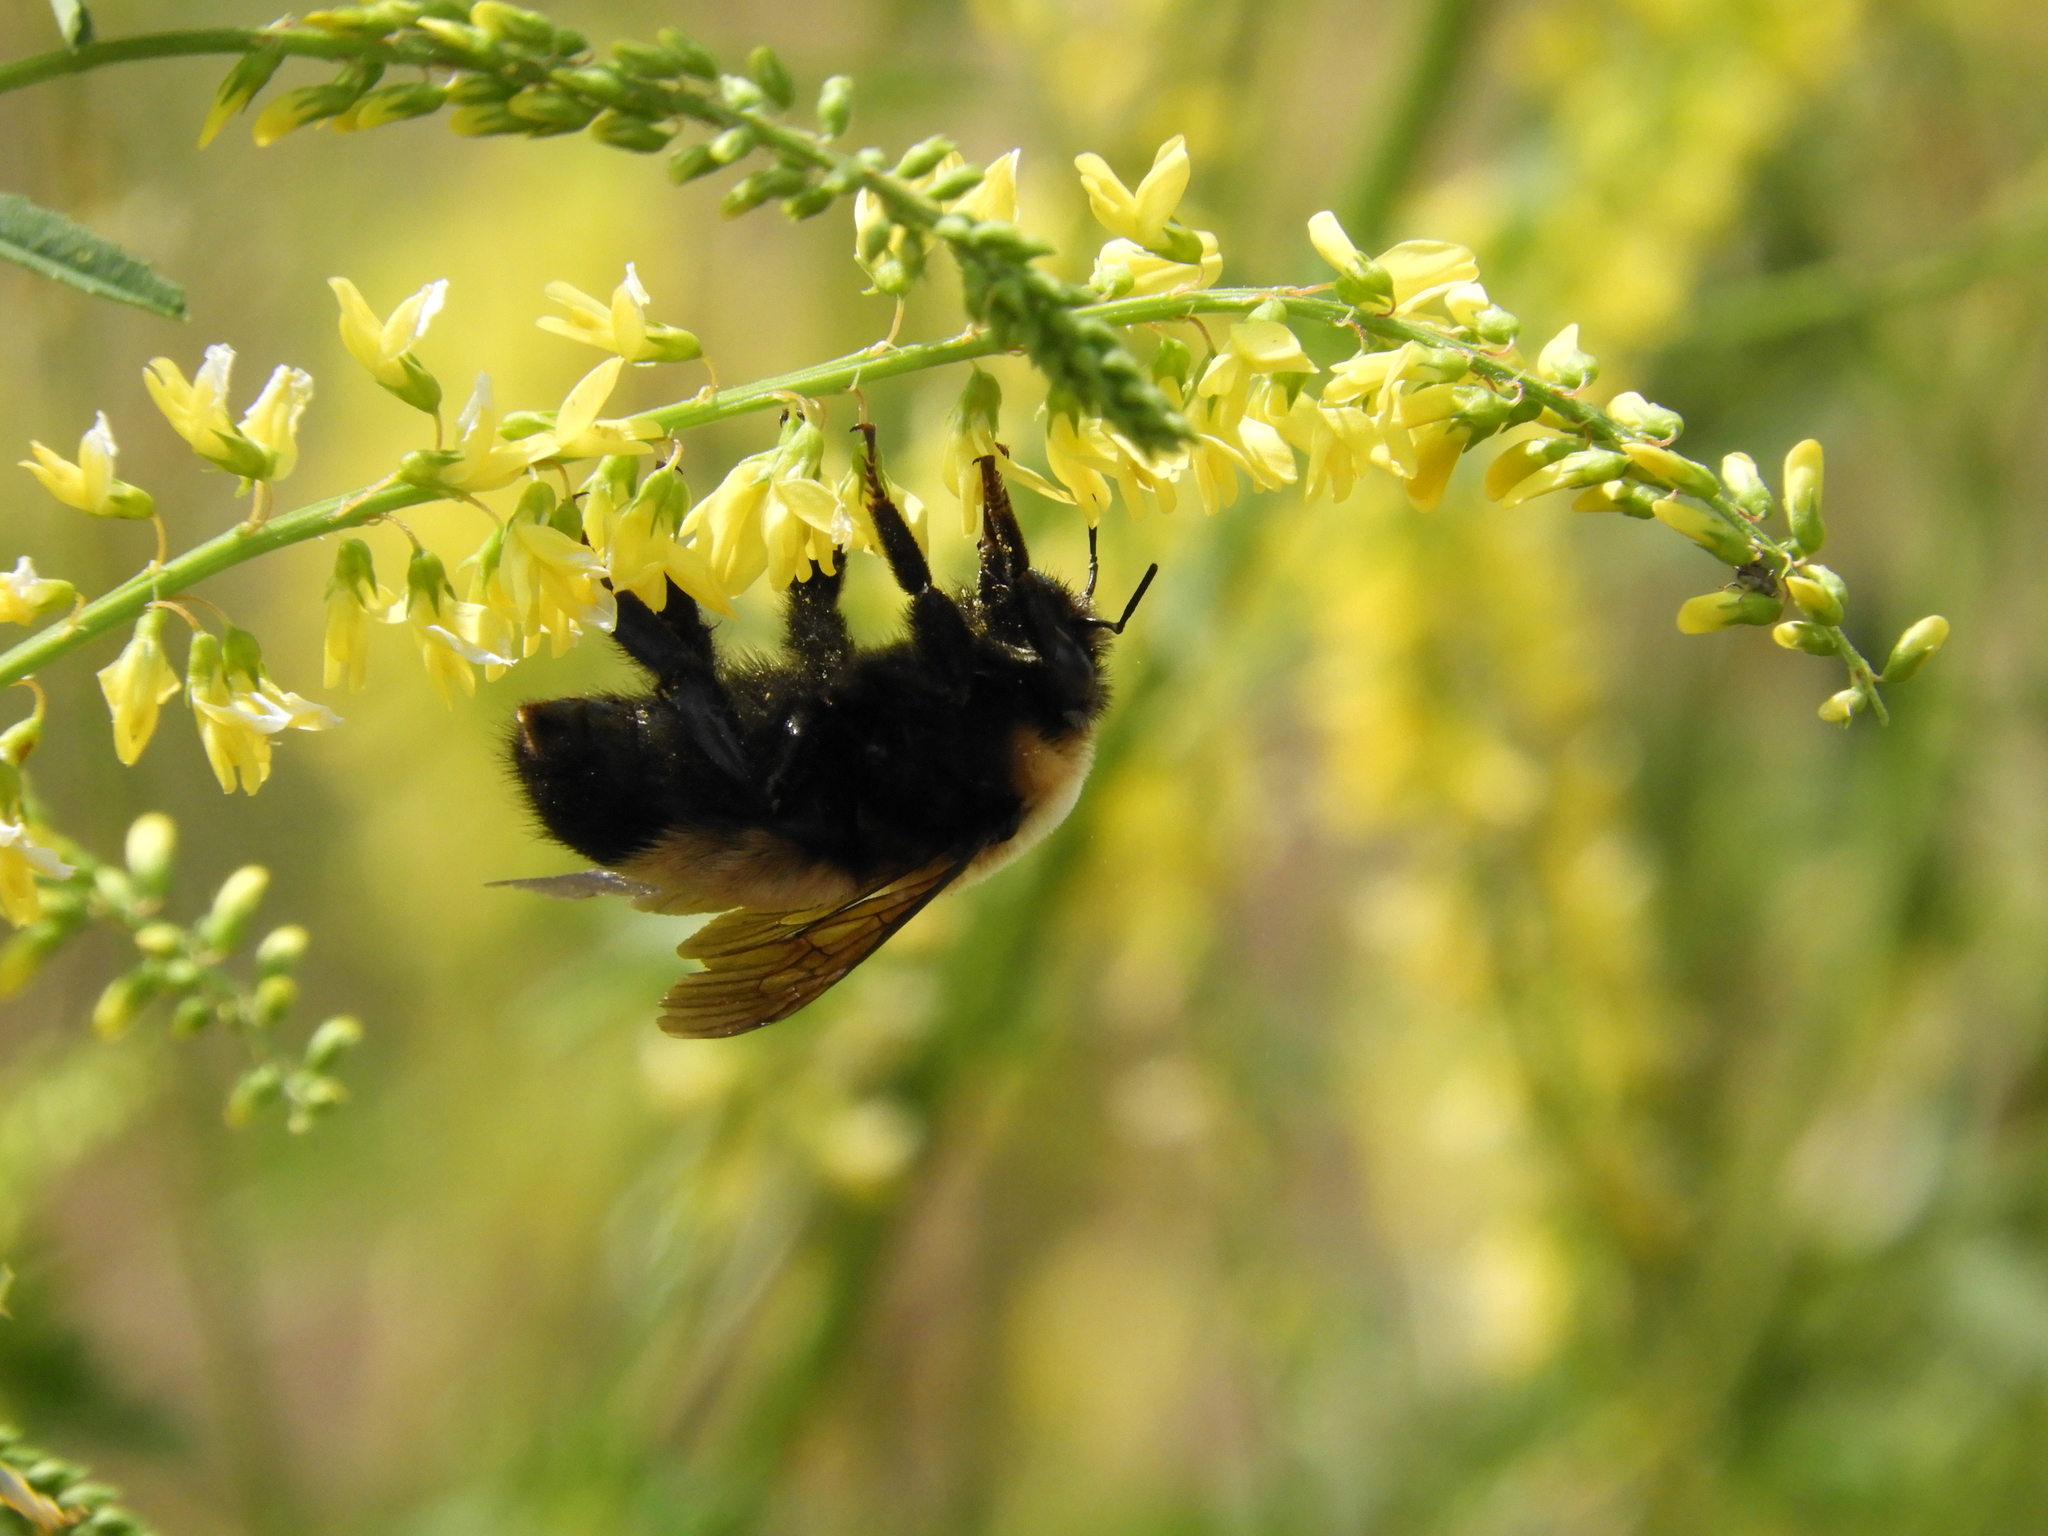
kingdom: Animalia
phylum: Arthropoda
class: Insecta
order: Hymenoptera
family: Apidae
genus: Bombus
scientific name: Bombus nevadensis
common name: Nevada bumble bee
